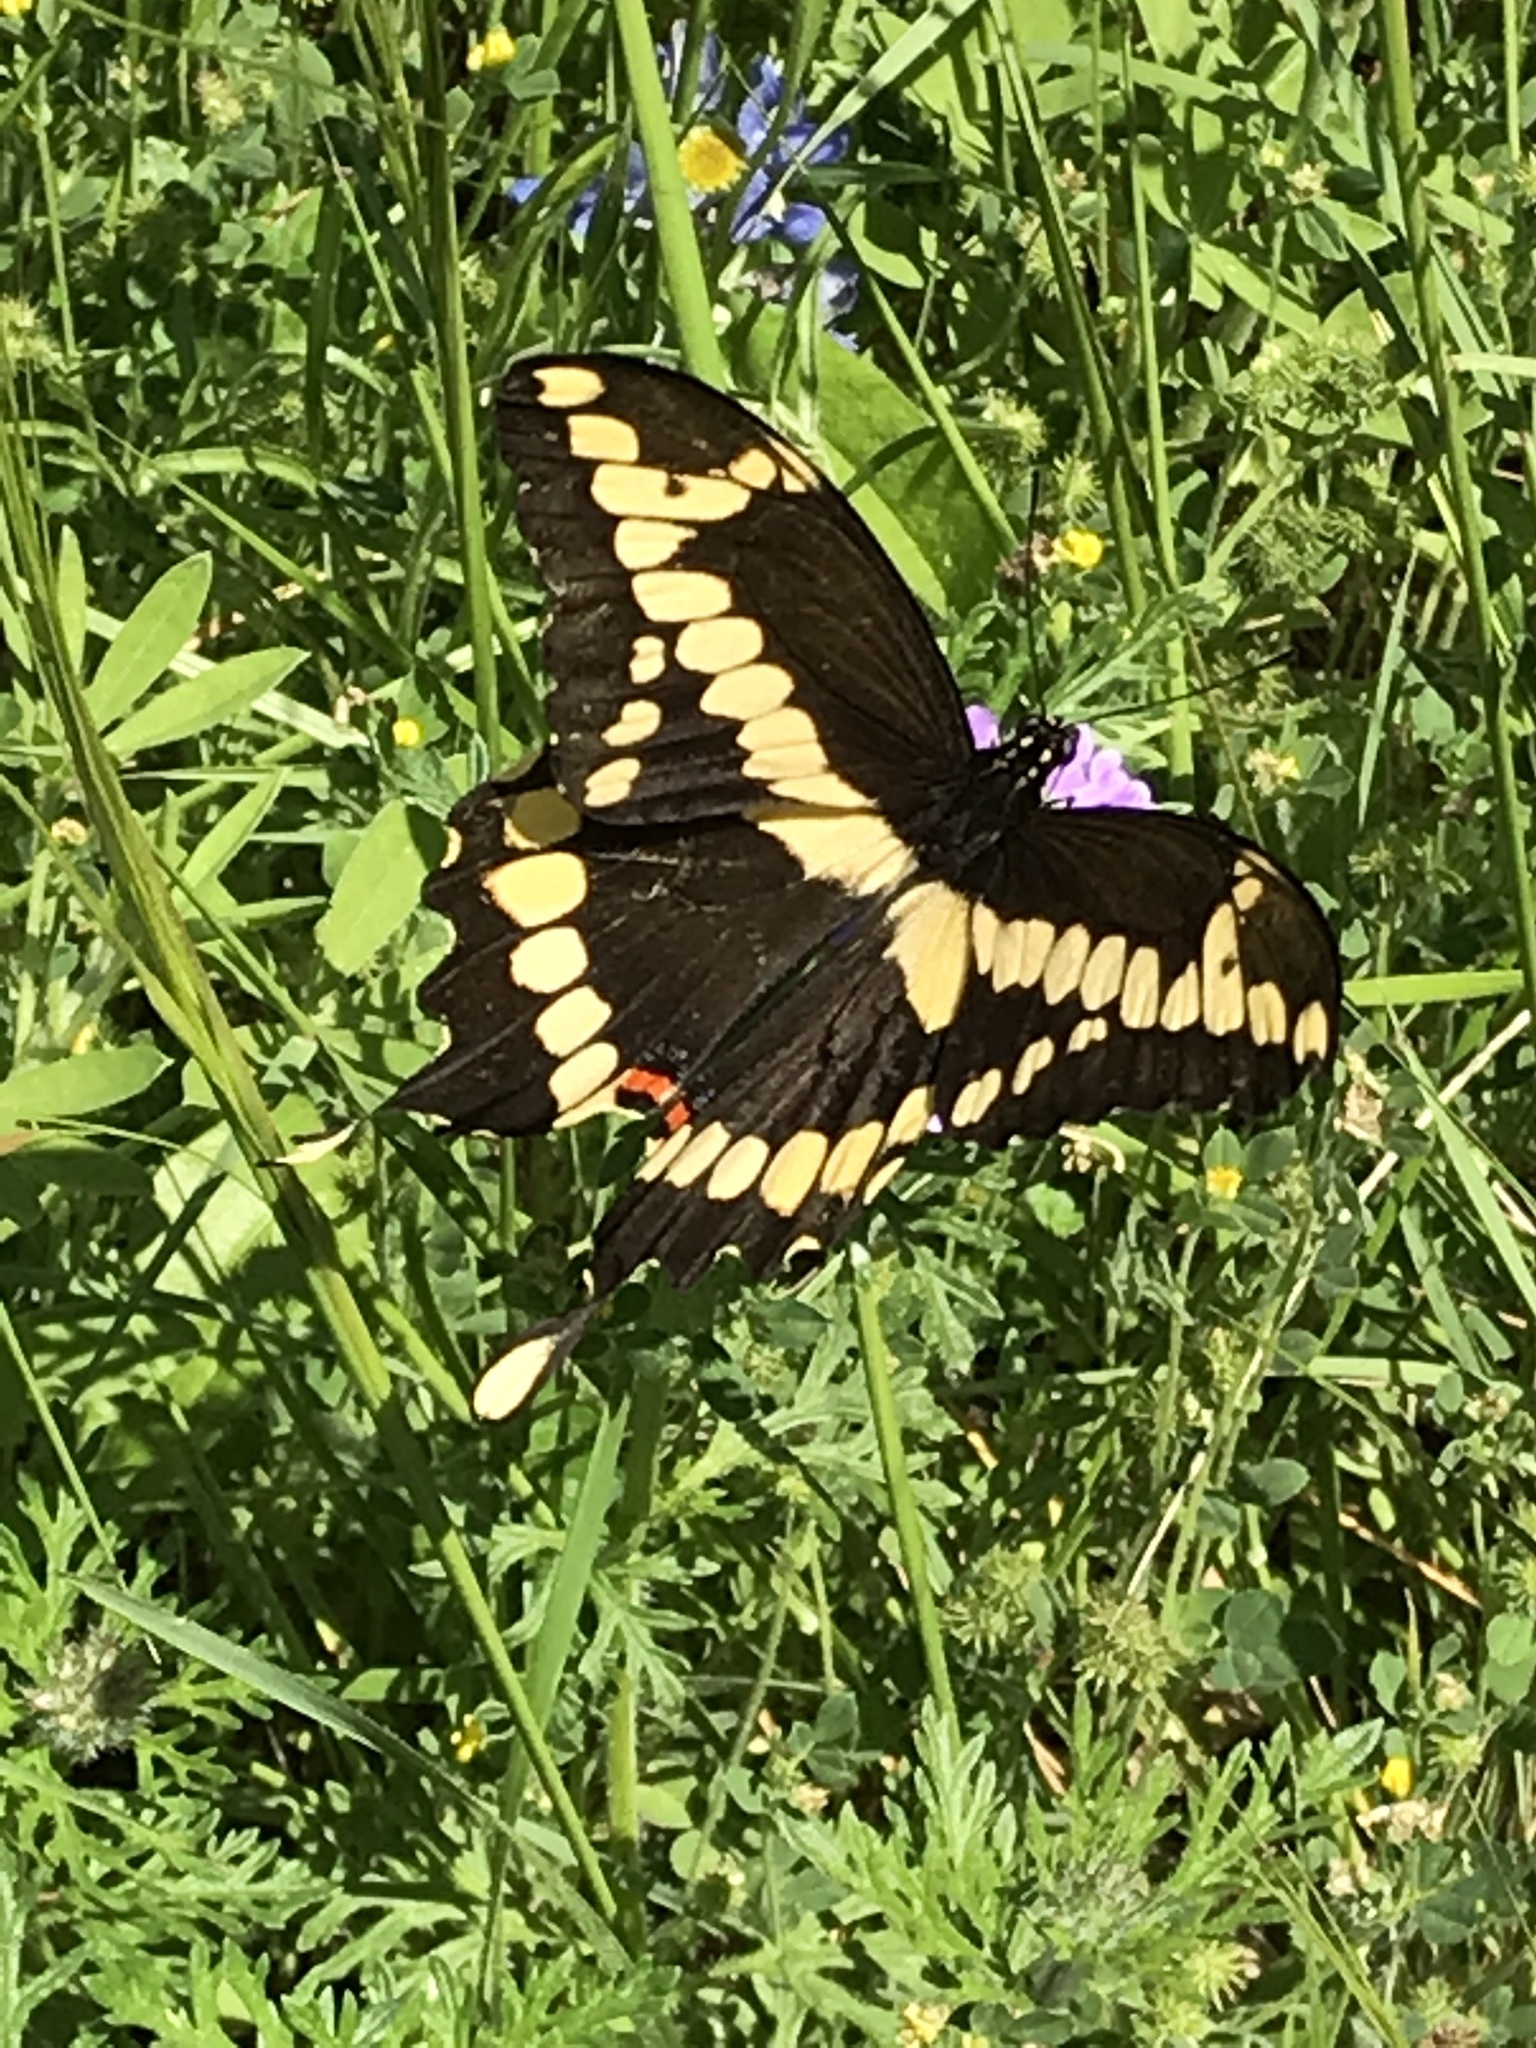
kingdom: Animalia
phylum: Arthropoda
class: Insecta
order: Lepidoptera
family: Papilionidae
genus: Papilio
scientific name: Papilio cresphontes
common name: Giant swallowtail
